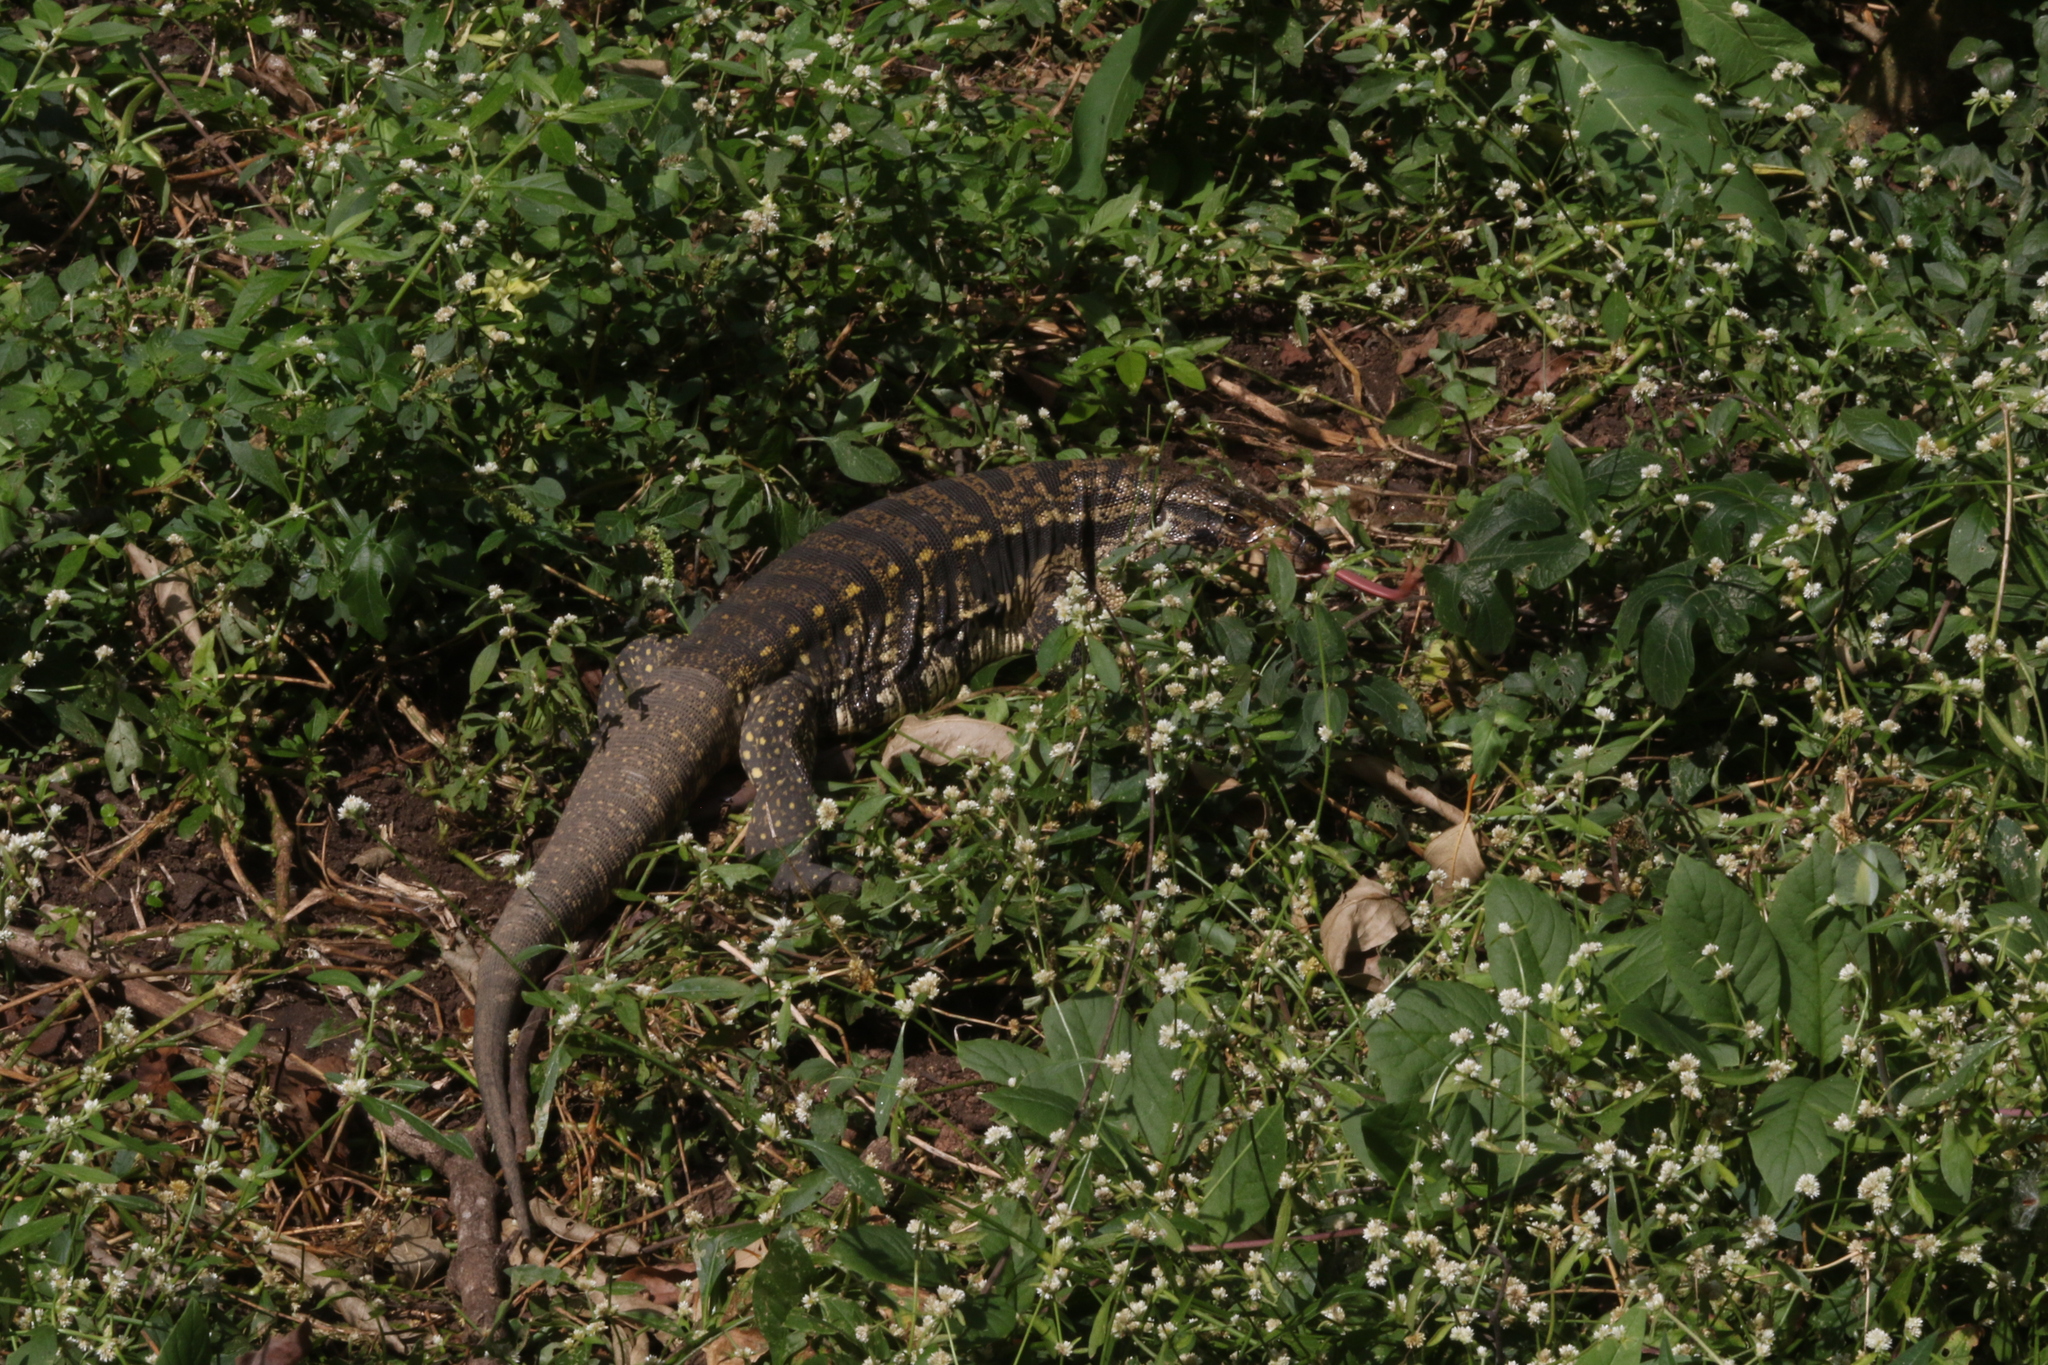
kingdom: Animalia
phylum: Chordata
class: Squamata
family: Teiidae
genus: Salvator
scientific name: Salvator merianae
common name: Argentine black and white tegu
